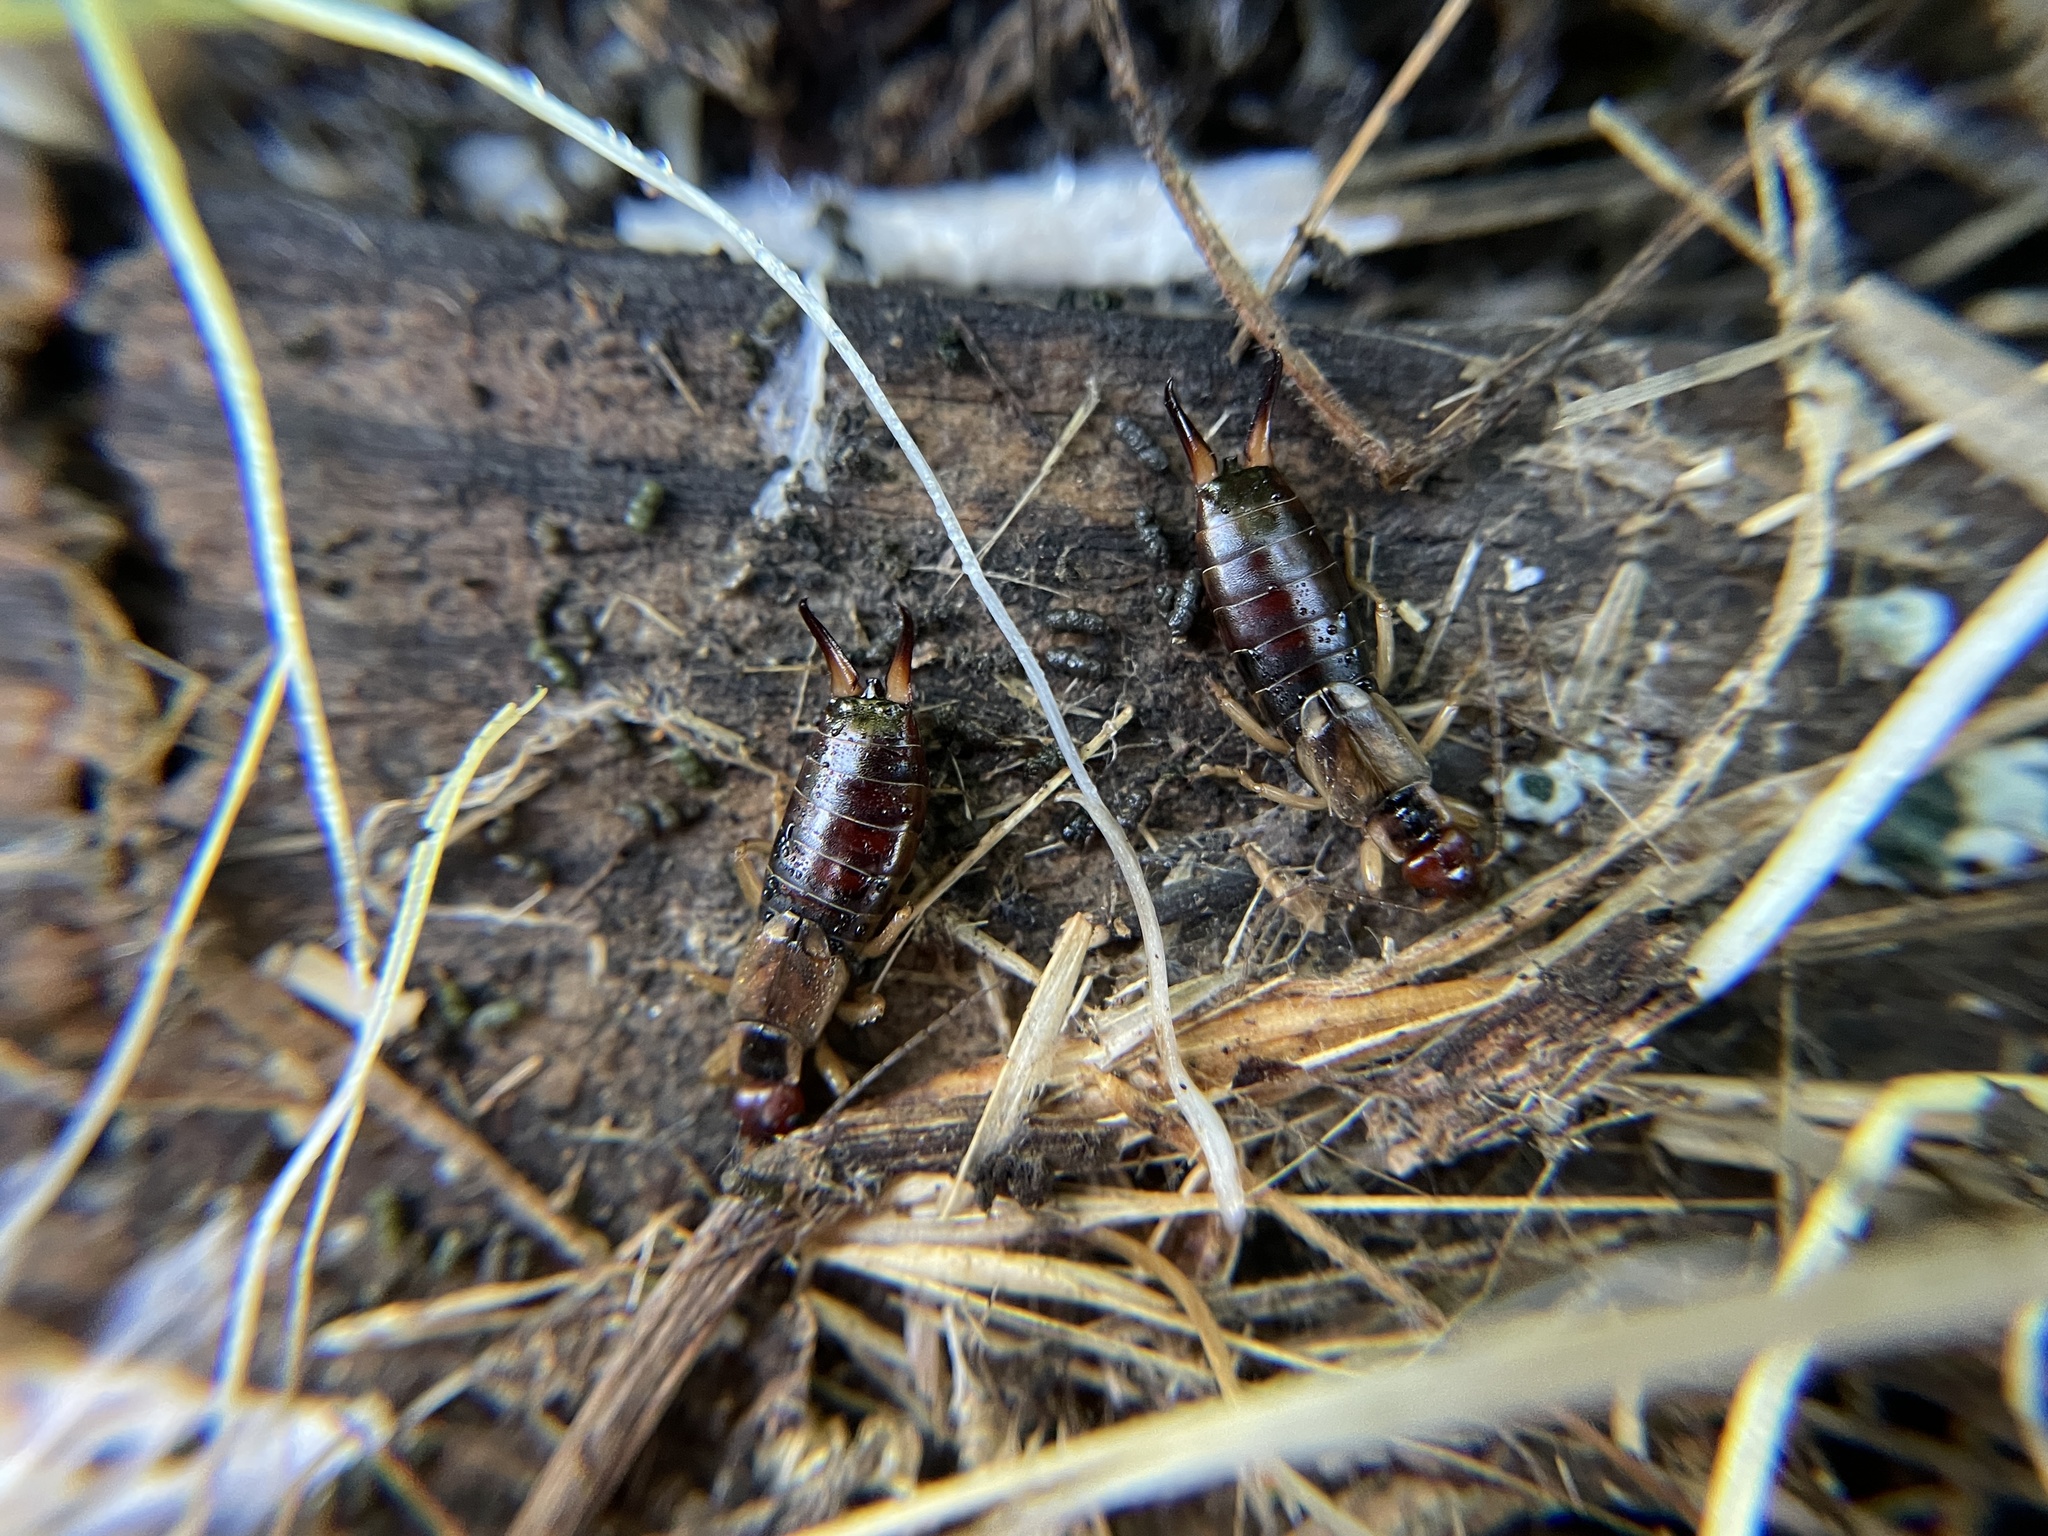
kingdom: Animalia
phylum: Arthropoda
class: Insecta
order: Dermaptera
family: Forficulidae
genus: Forficula
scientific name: Forficula
